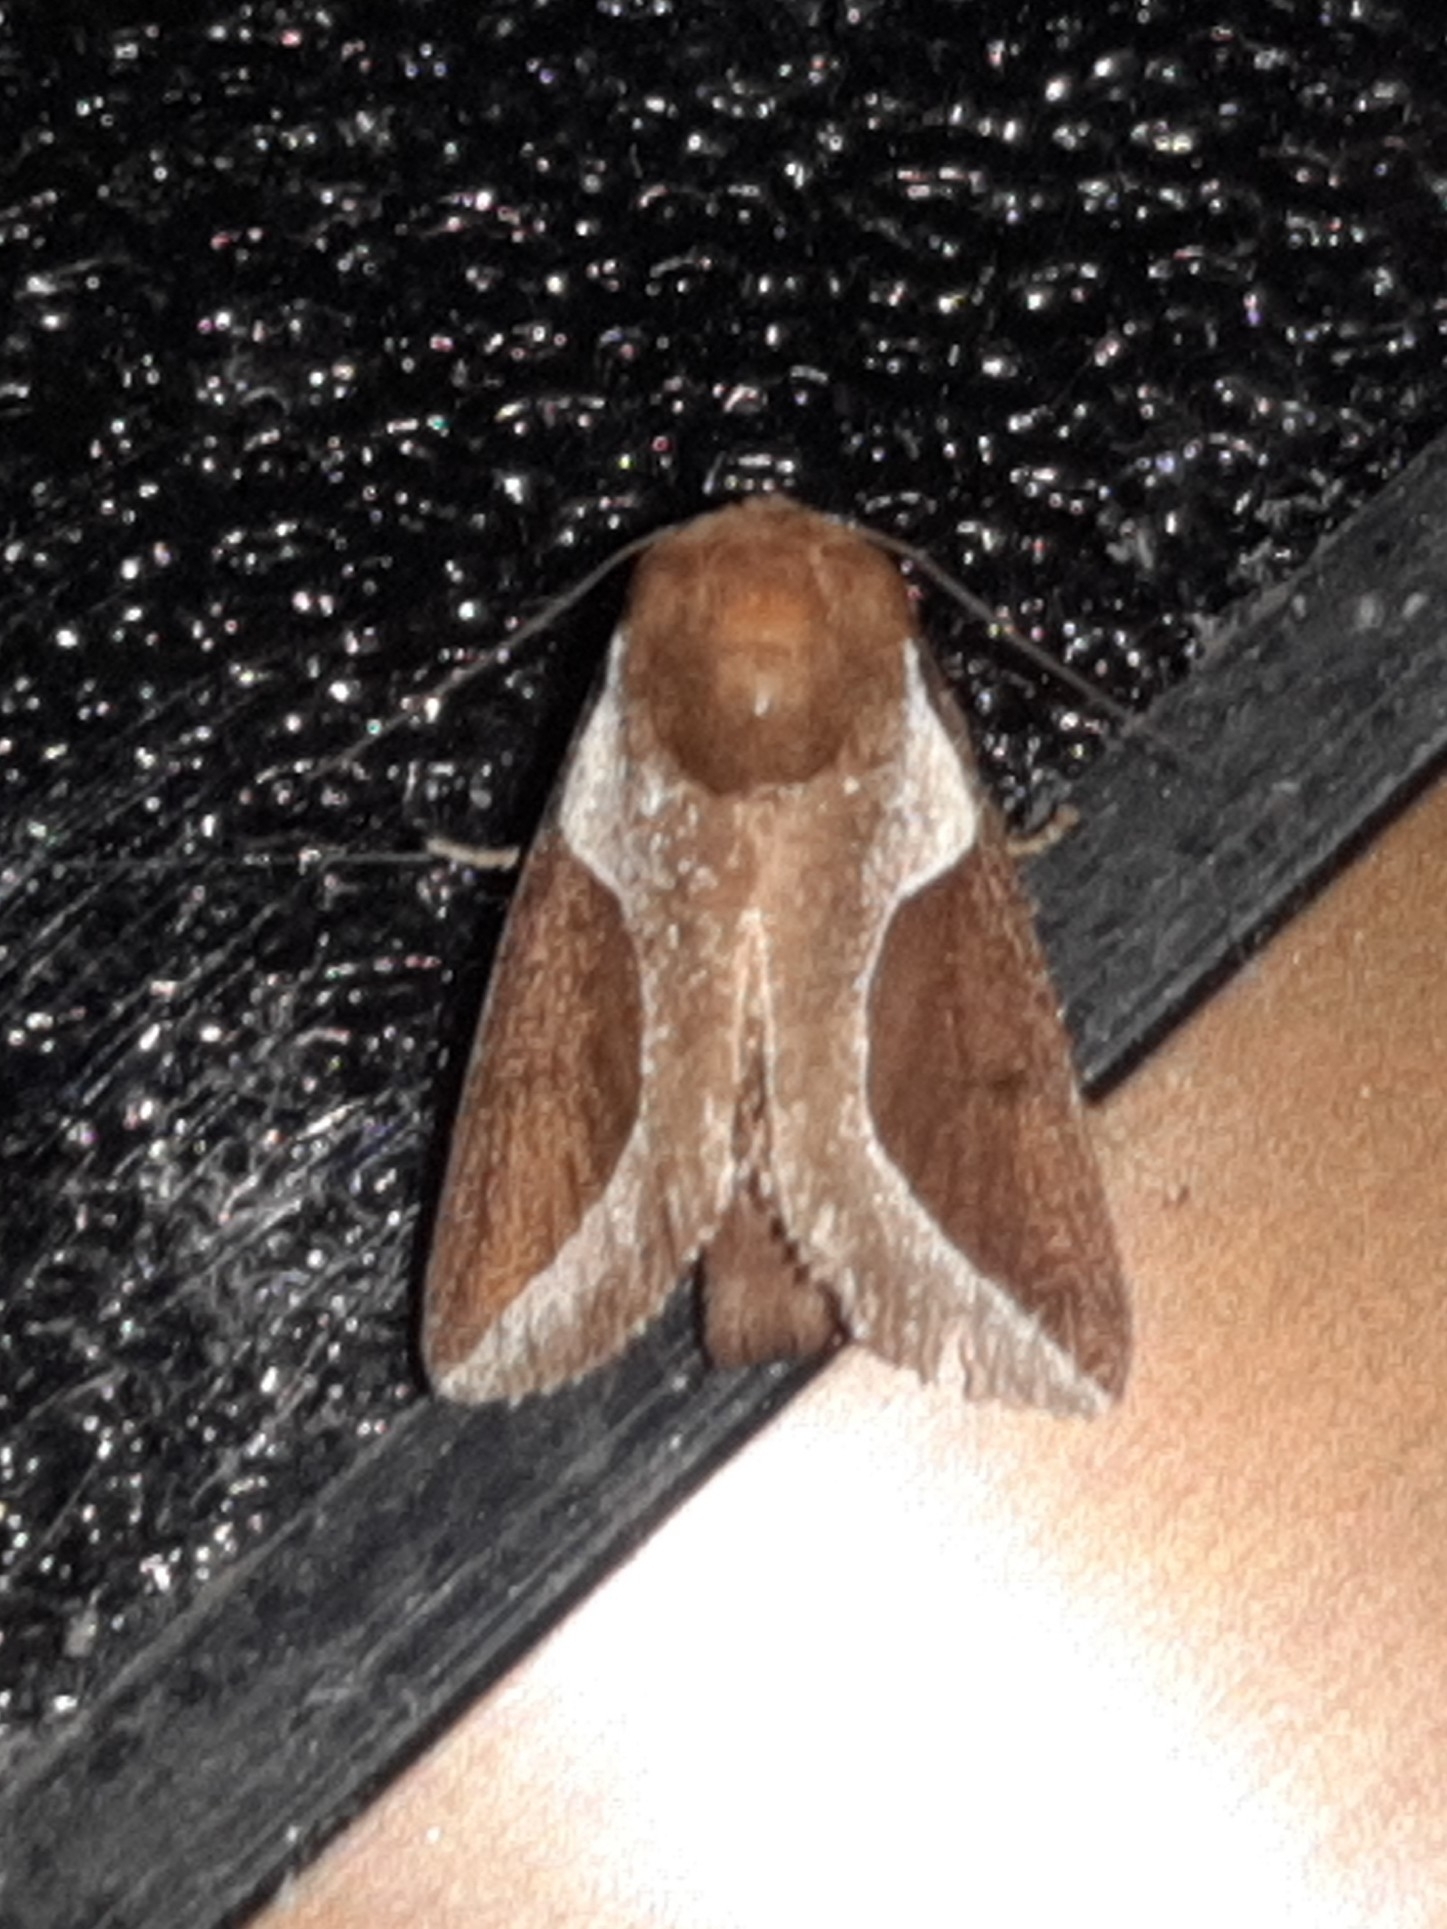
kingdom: Animalia
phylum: Arthropoda
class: Insecta
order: Lepidoptera
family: Limacodidae
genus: Prolimacodes
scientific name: Prolimacodes badia
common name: Skiff moth
